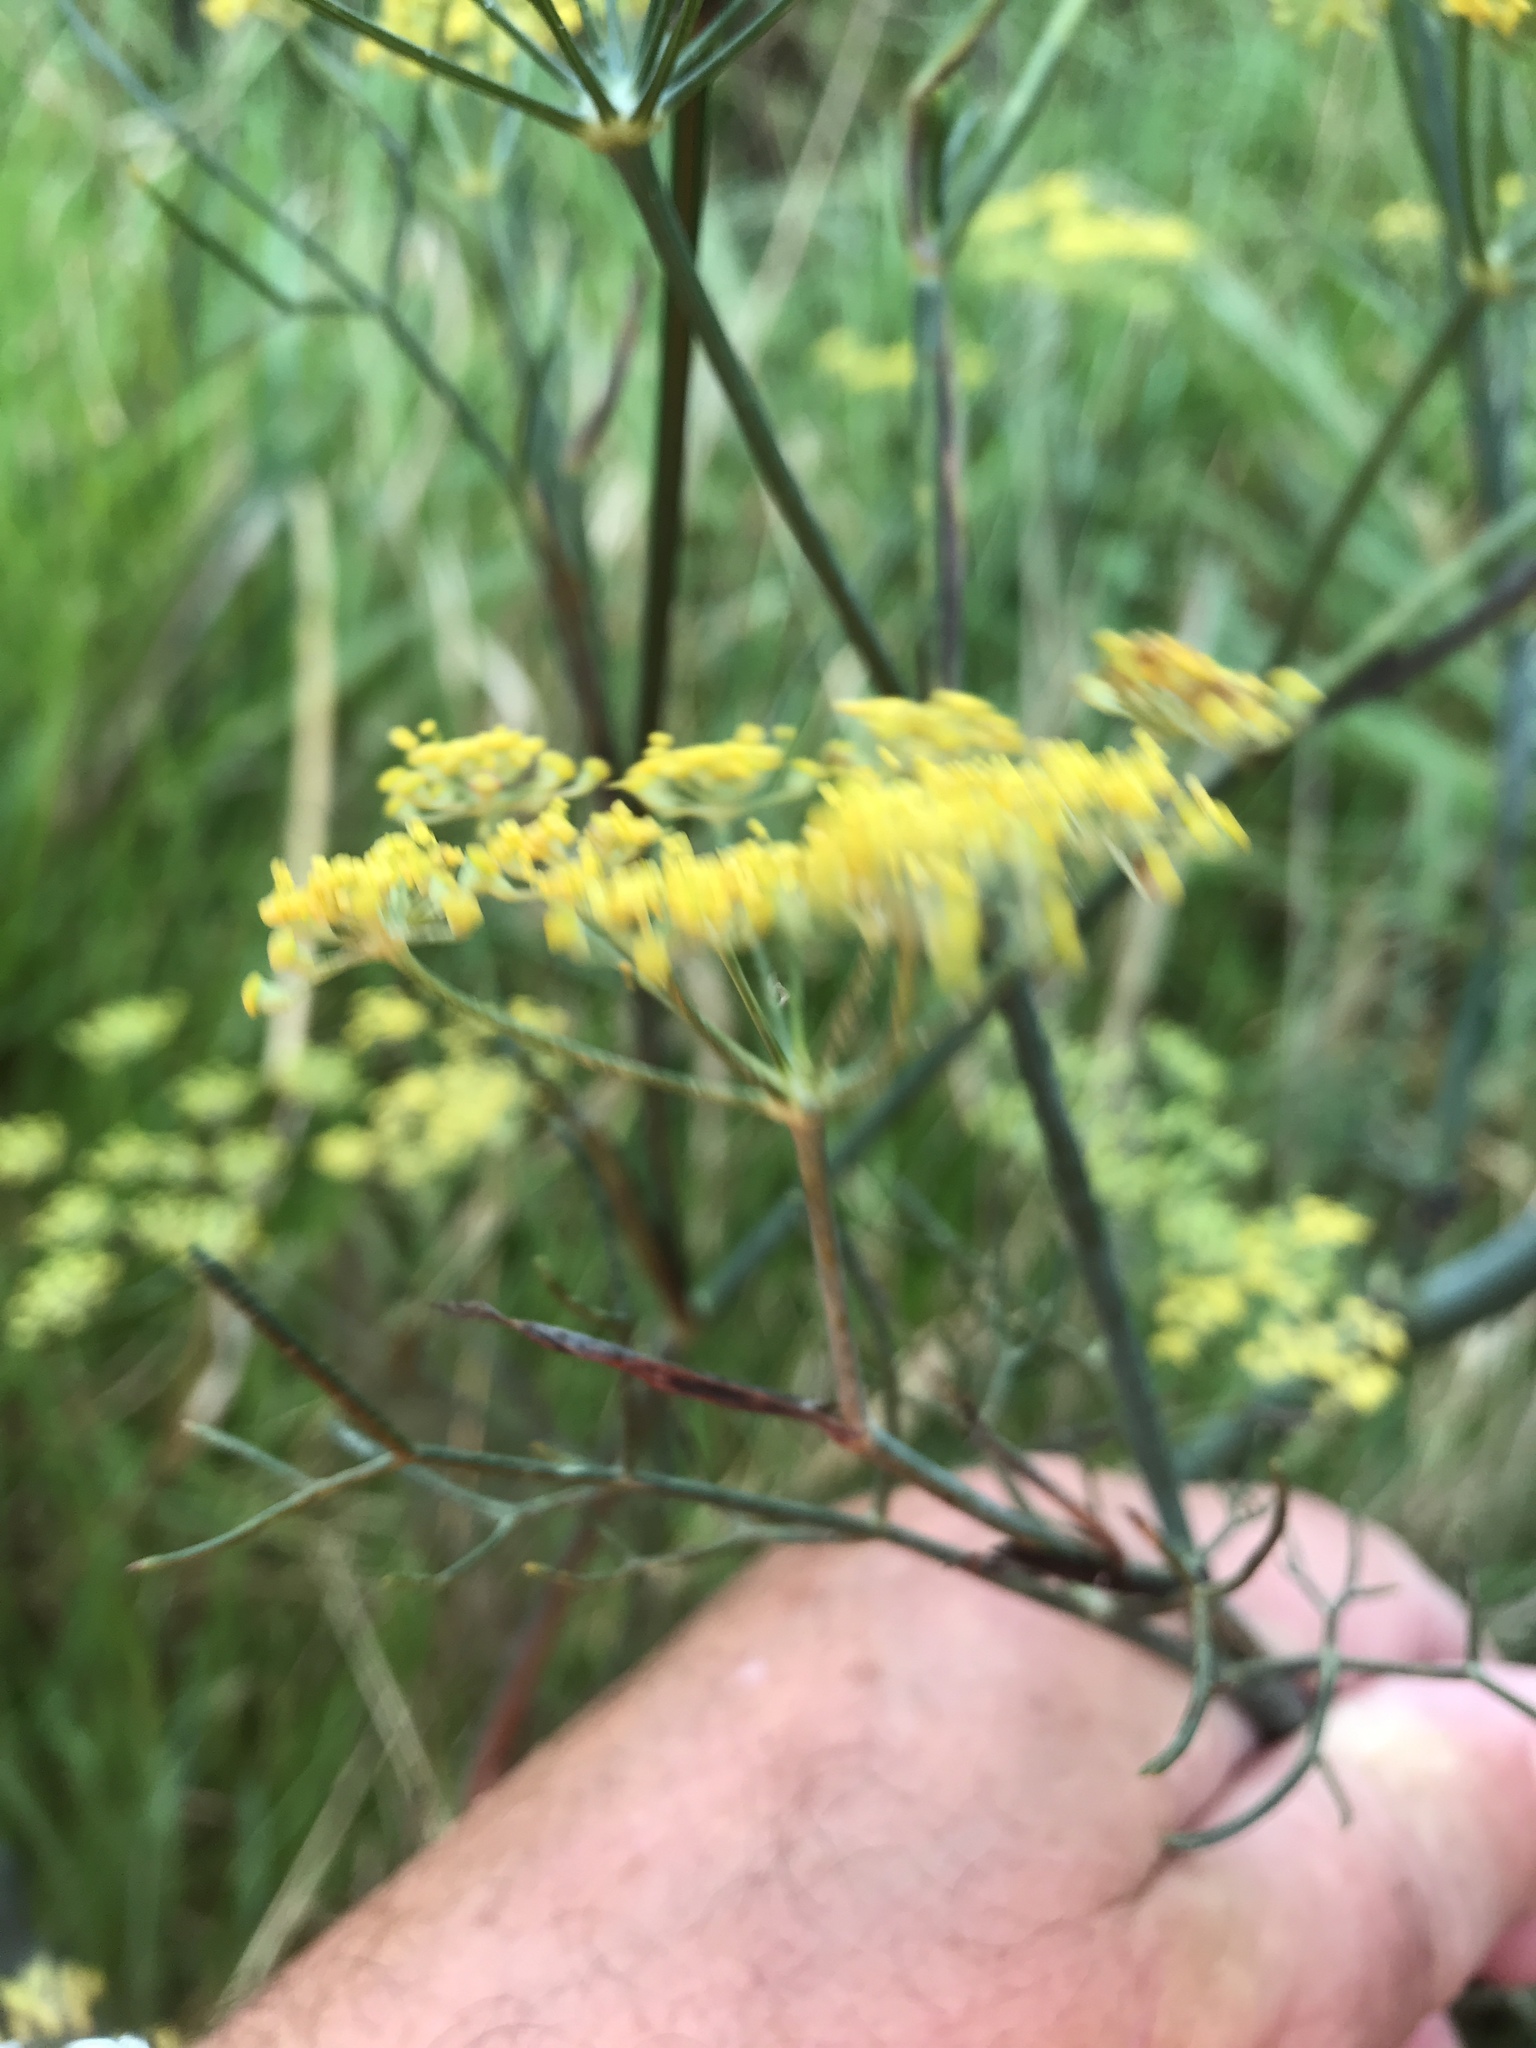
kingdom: Plantae
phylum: Tracheophyta
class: Magnoliopsida
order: Apiales
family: Apiaceae
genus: Foeniculum
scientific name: Foeniculum vulgare
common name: Fennel
